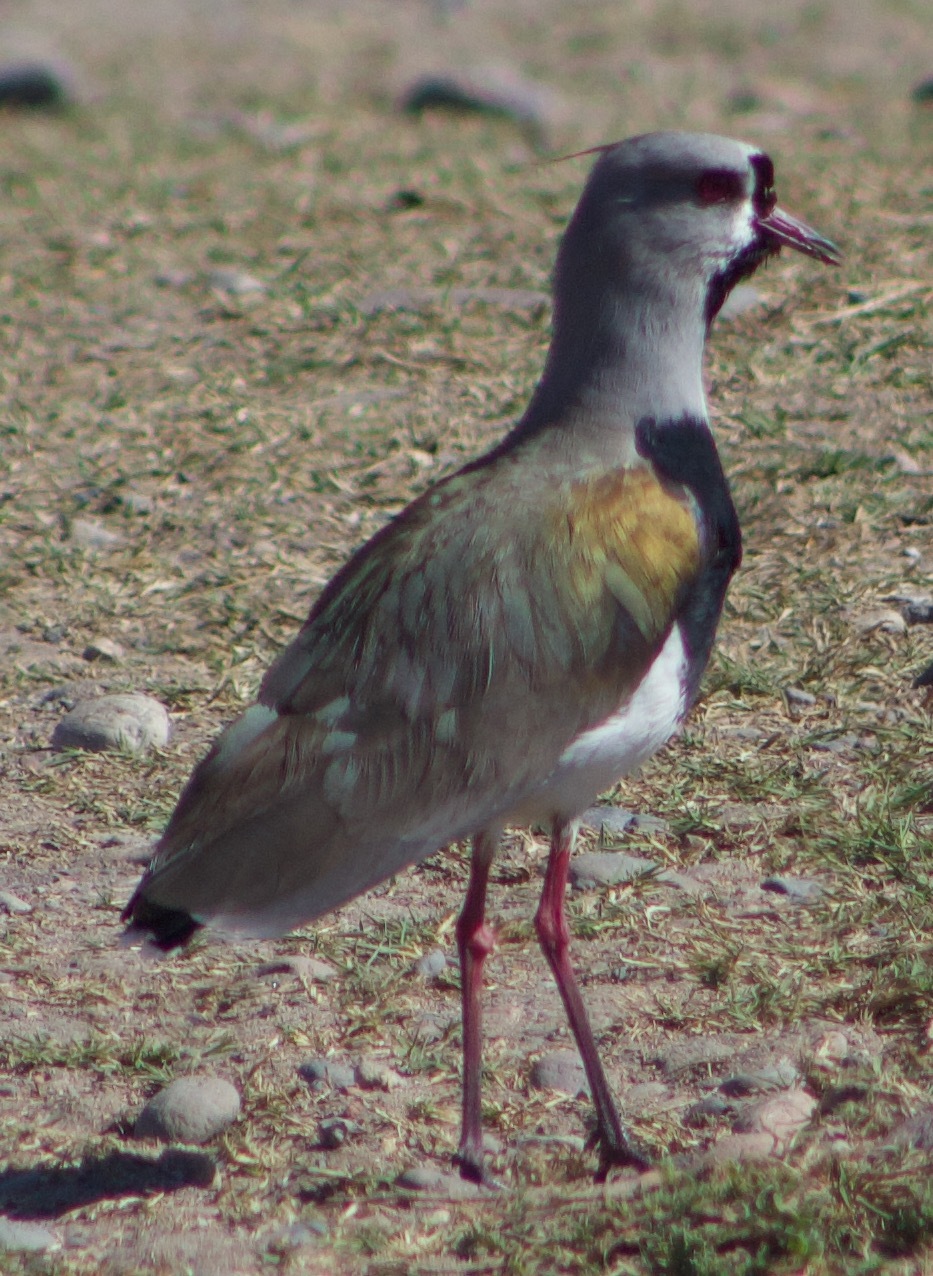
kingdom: Animalia
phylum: Chordata
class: Aves
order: Charadriiformes
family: Charadriidae
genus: Vanellus
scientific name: Vanellus chilensis
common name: Southern lapwing
